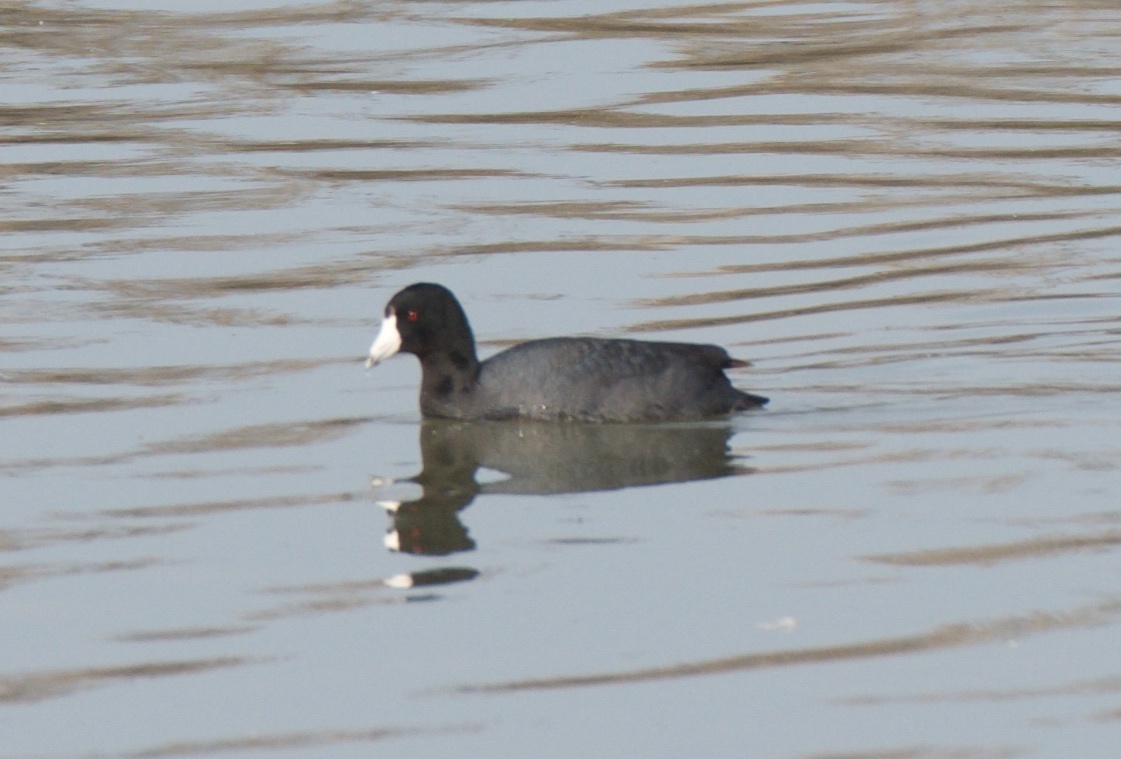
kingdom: Animalia
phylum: Chordata
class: Aves
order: Gruiformes
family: Rallidae
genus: Fulica
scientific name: Fulica americana
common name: American coot
